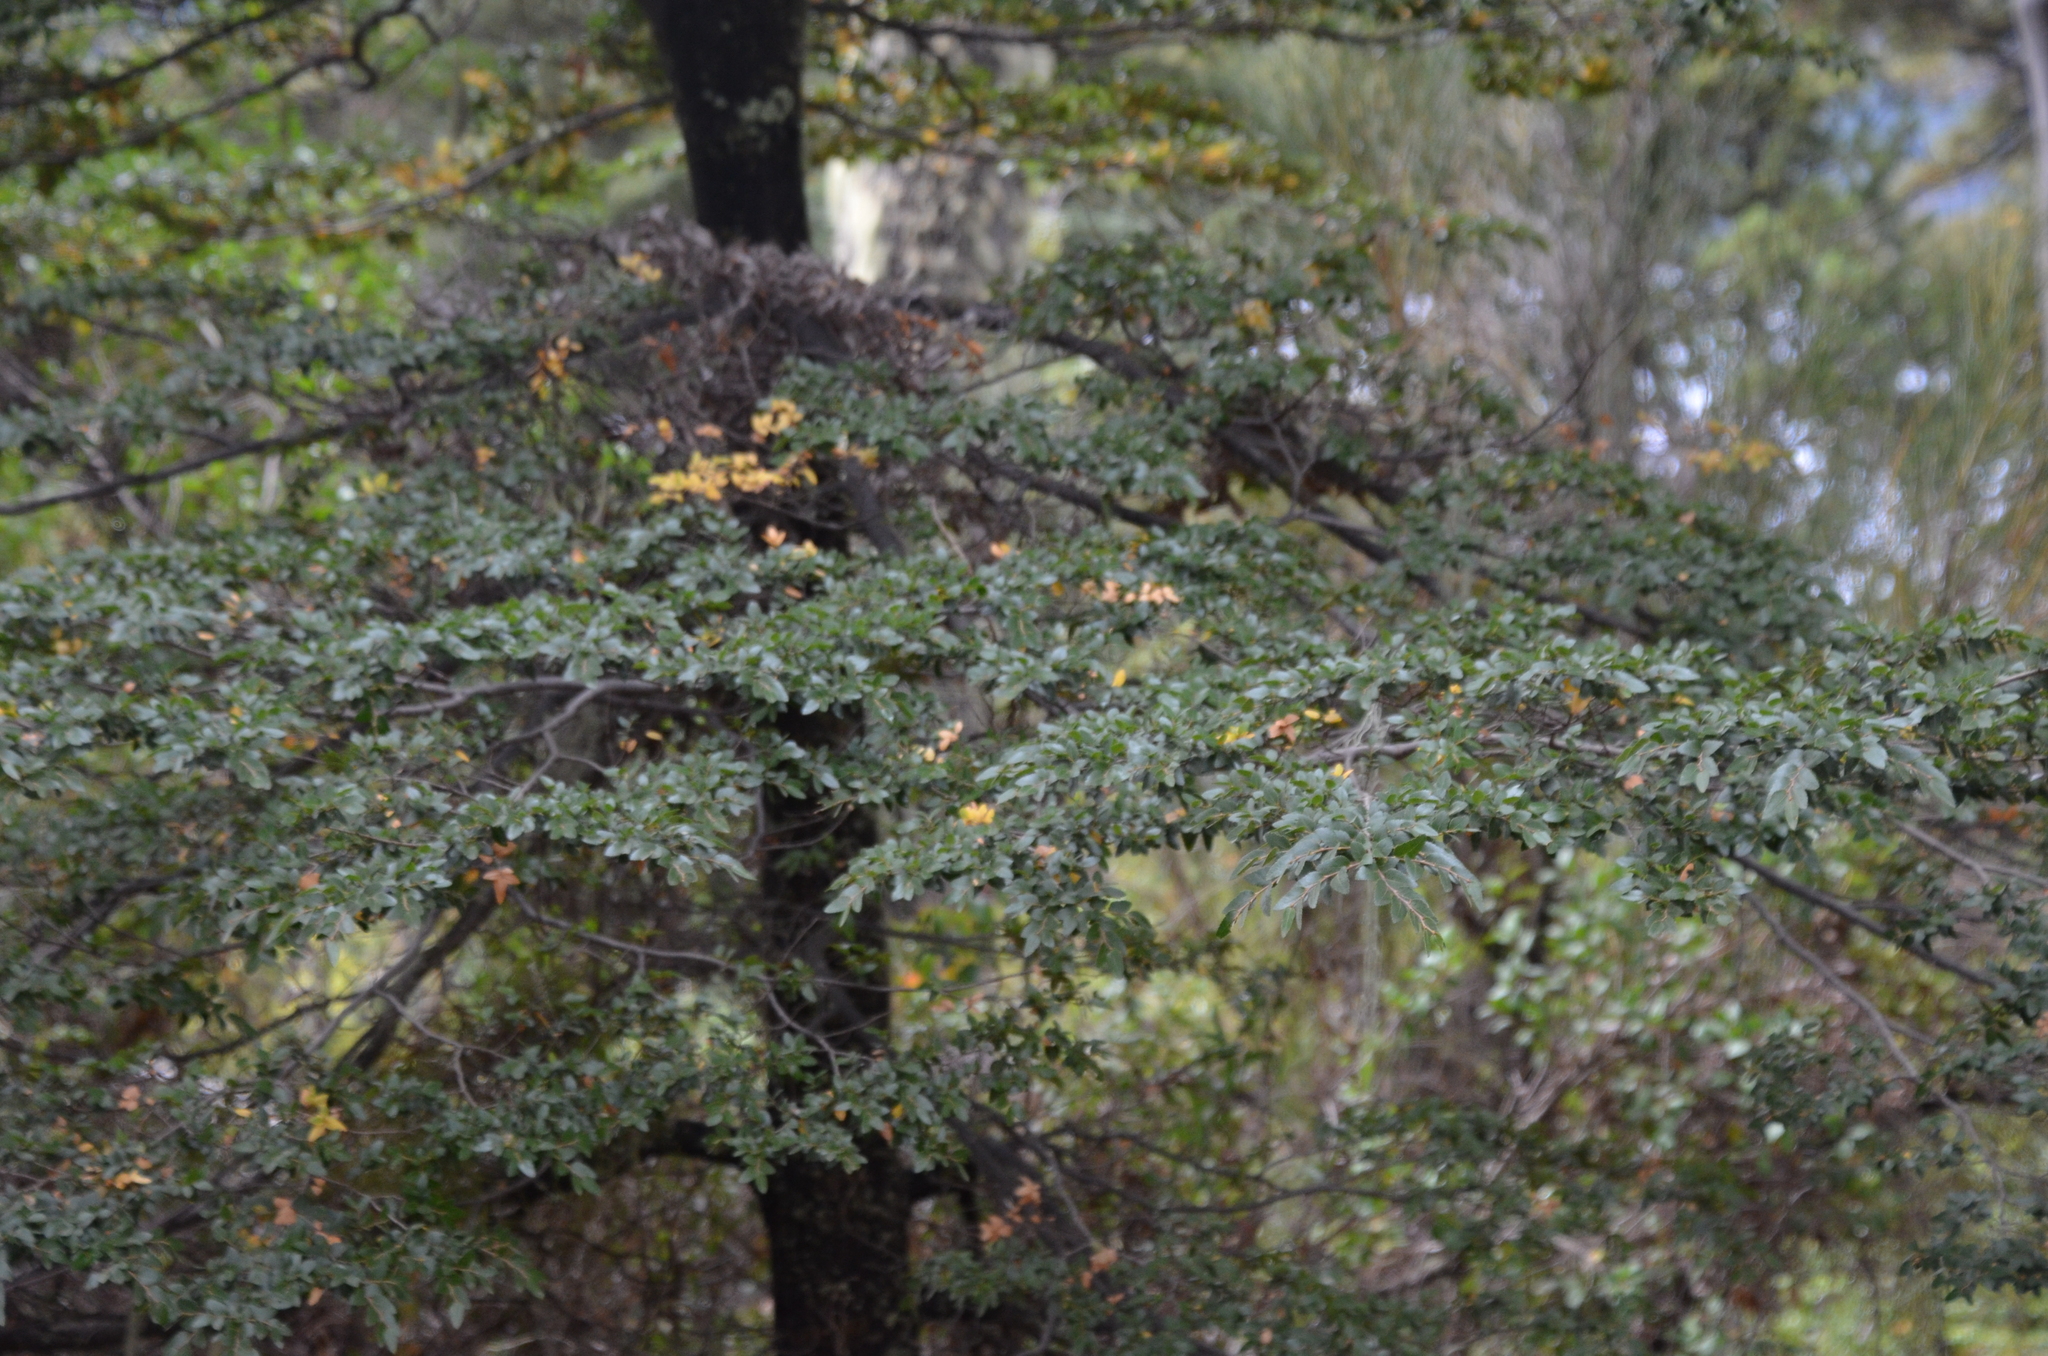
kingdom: Plantae
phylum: Tracheophyta
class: Magnoliopsida
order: Fagales
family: Nothofagaceae
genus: Nothofagus
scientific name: Nothofagus dombeyi
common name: Coigue
